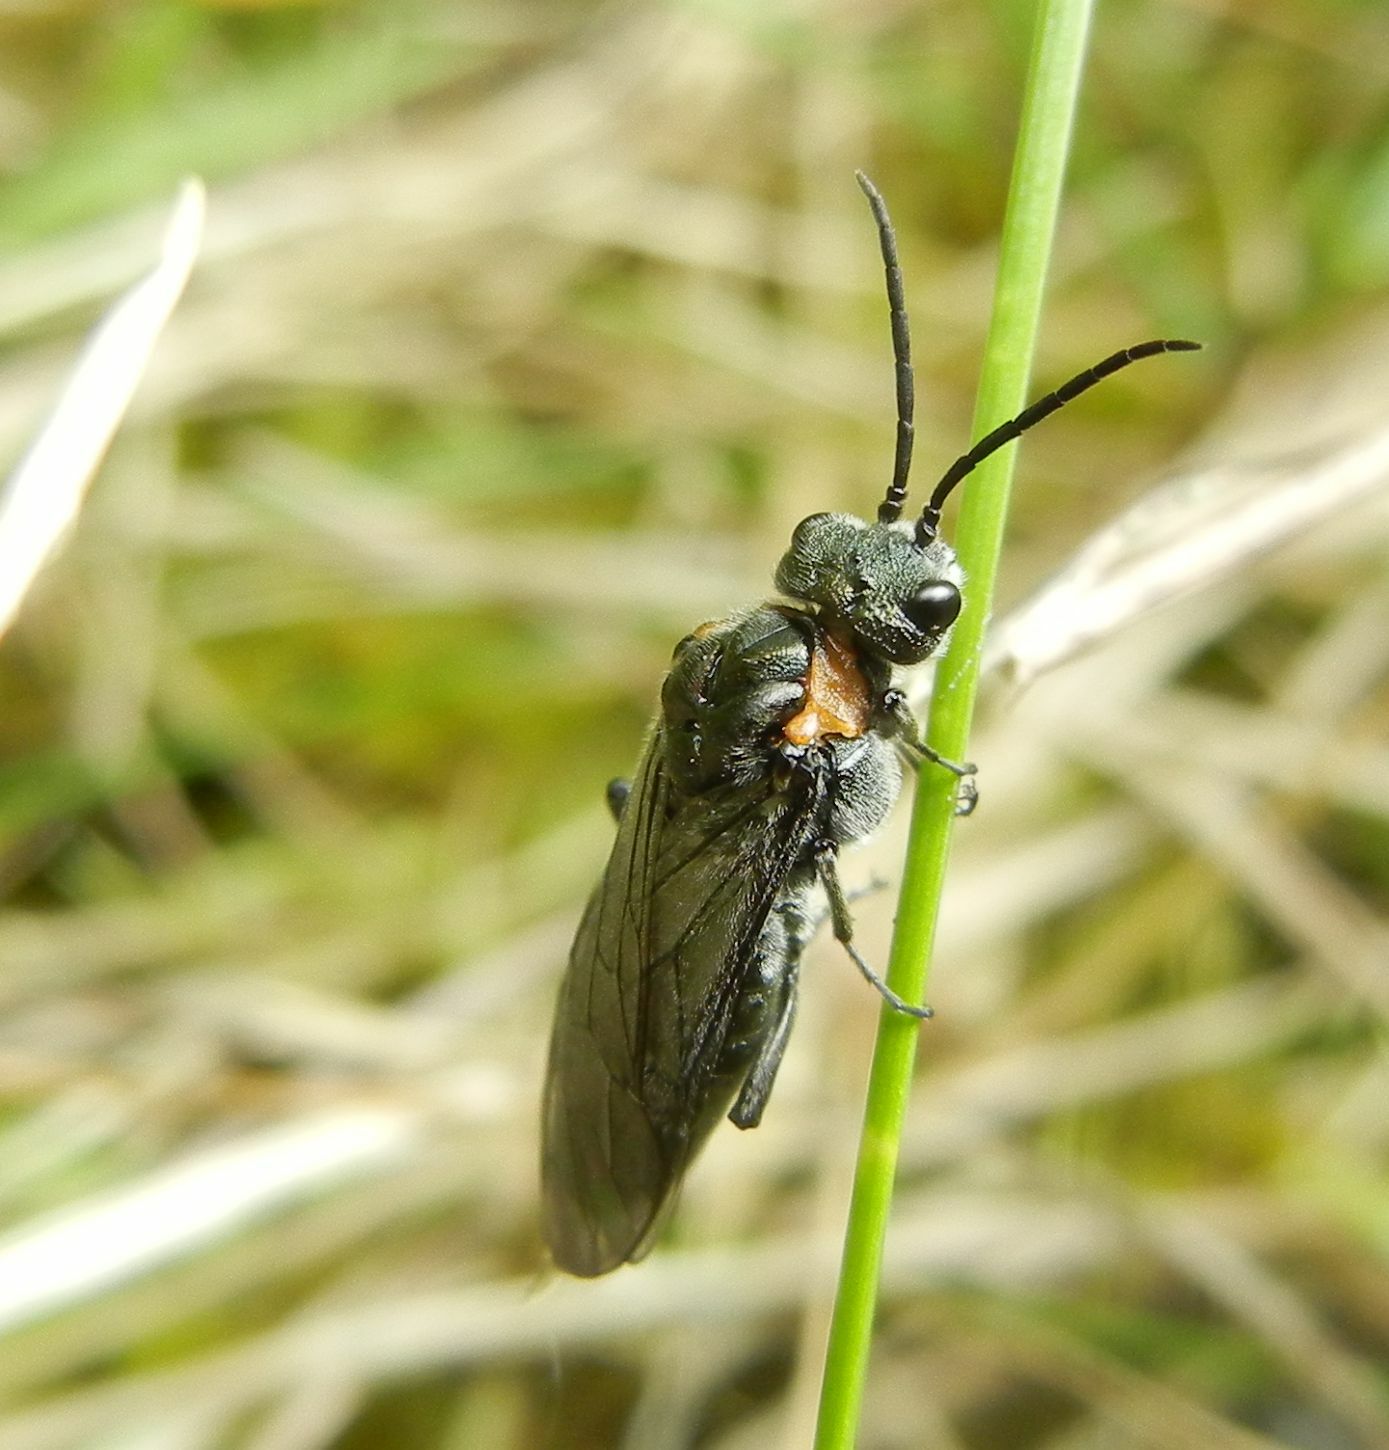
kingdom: Animalia
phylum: Arthropoda
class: Insecta
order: Hymenoptera
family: Tenthredinidae
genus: Dolerus
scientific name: Dolerus haematodes
